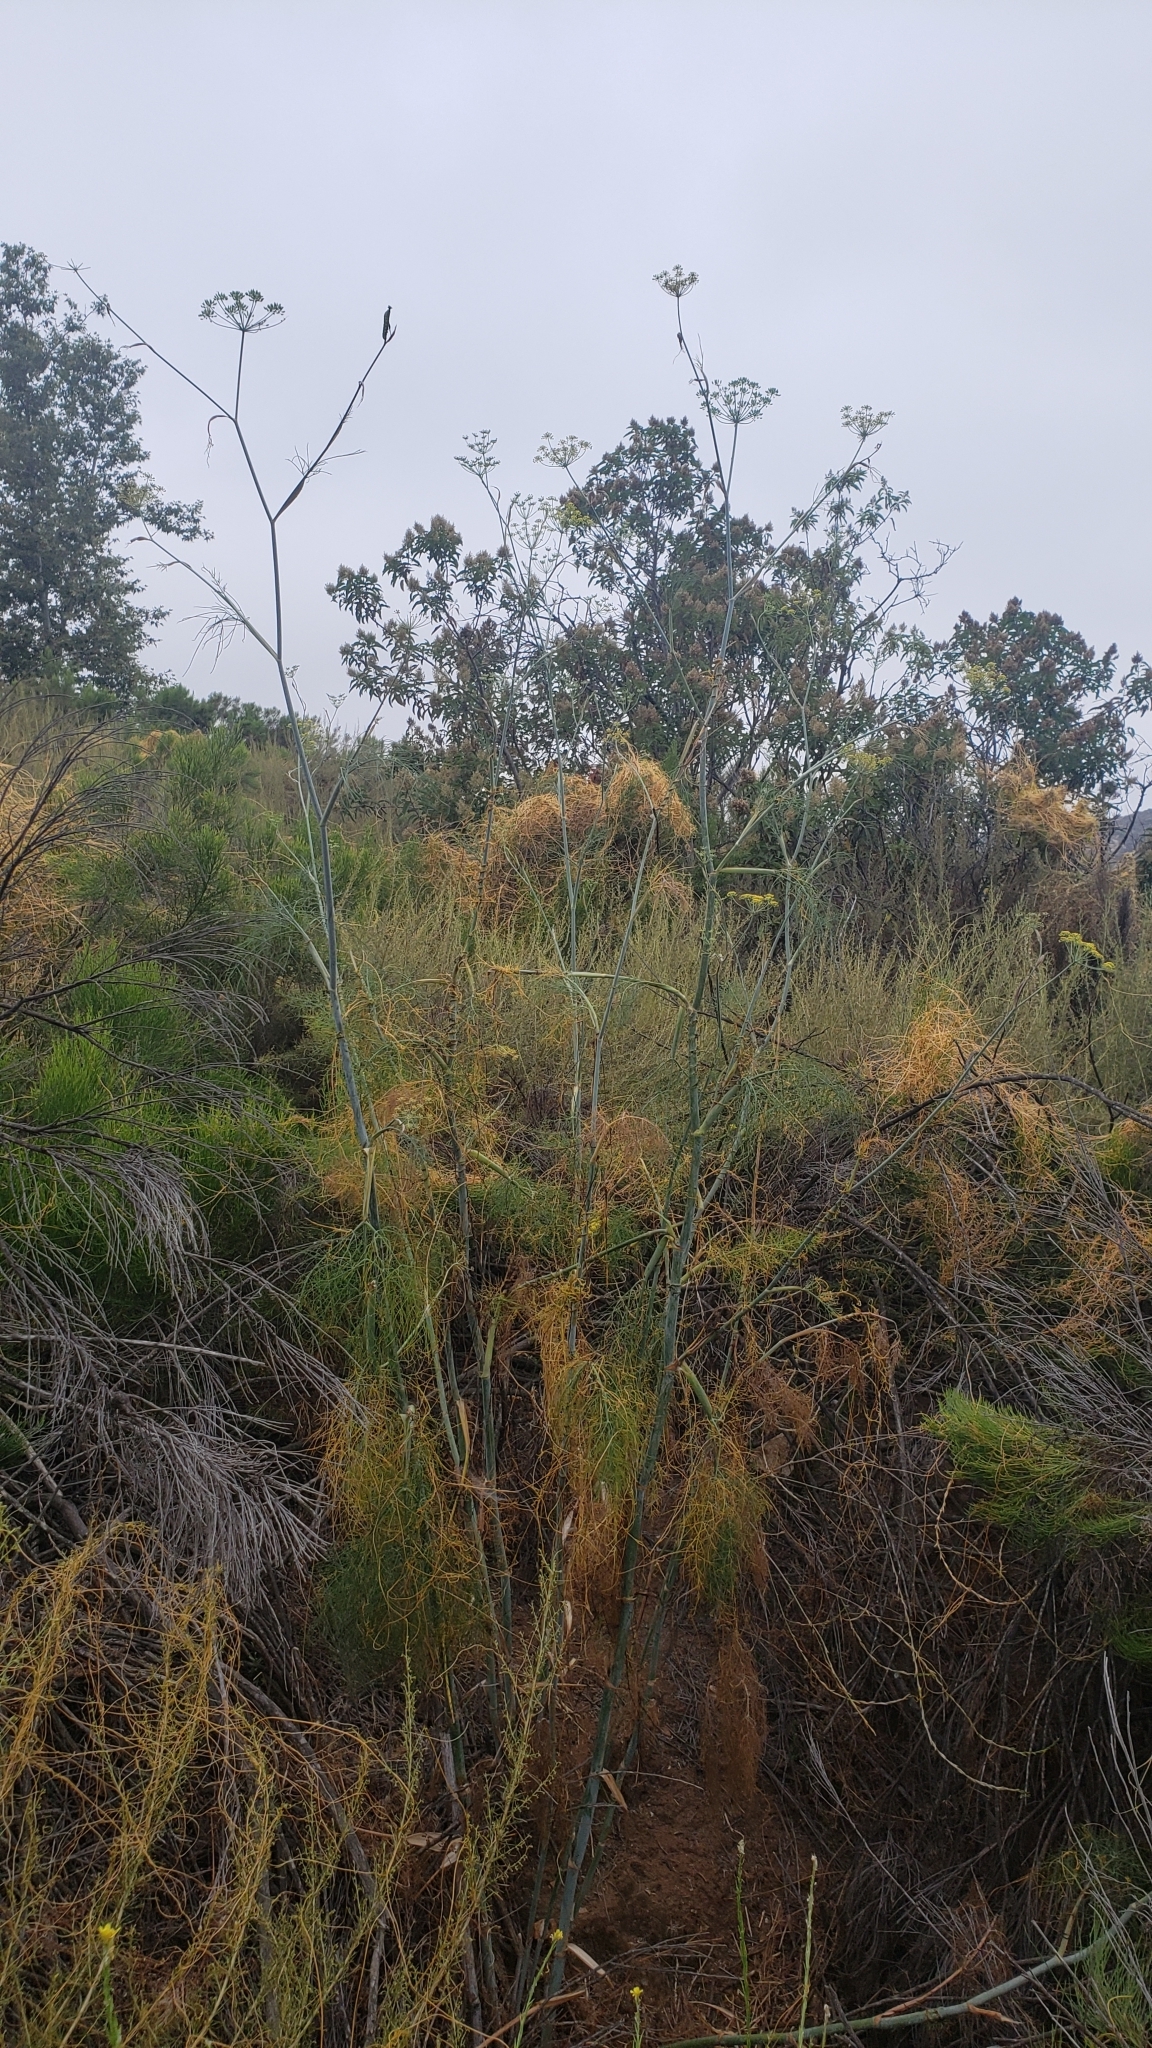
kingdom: Plantae
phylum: Tracheophyta
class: Magnoliopsida
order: Apiales
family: Apiaceae
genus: Foeniculum
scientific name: Foeniculum vulgare
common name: Fennel
